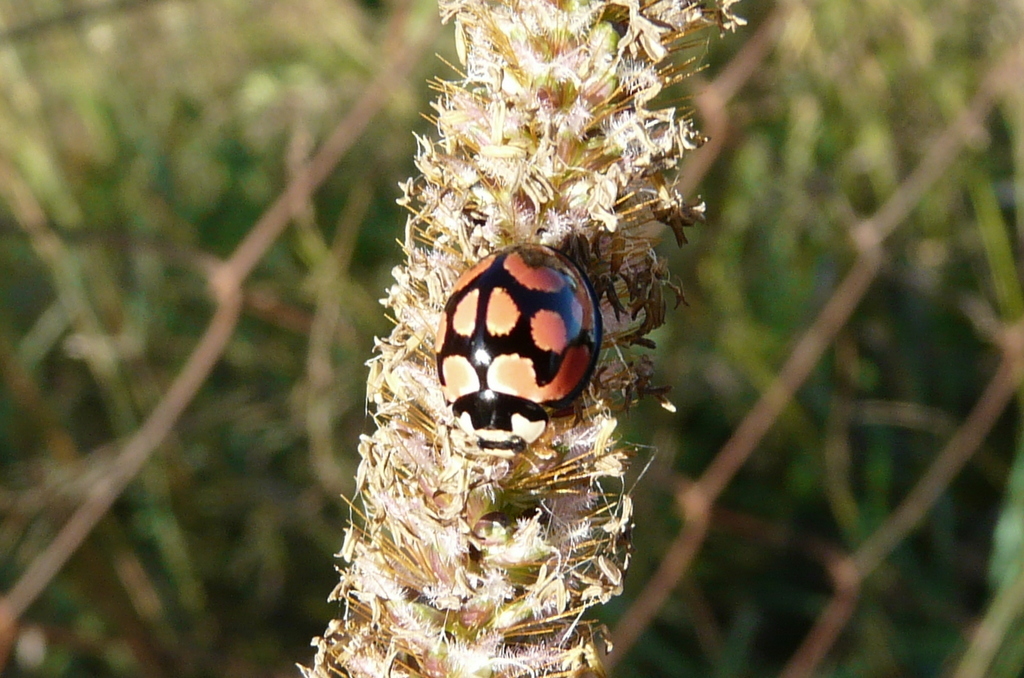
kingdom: Animalia
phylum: Arthropoda
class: Insecta
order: Coleoptera
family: Coccinellidae
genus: Cheilomenes
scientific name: Cheilomenes lunata
